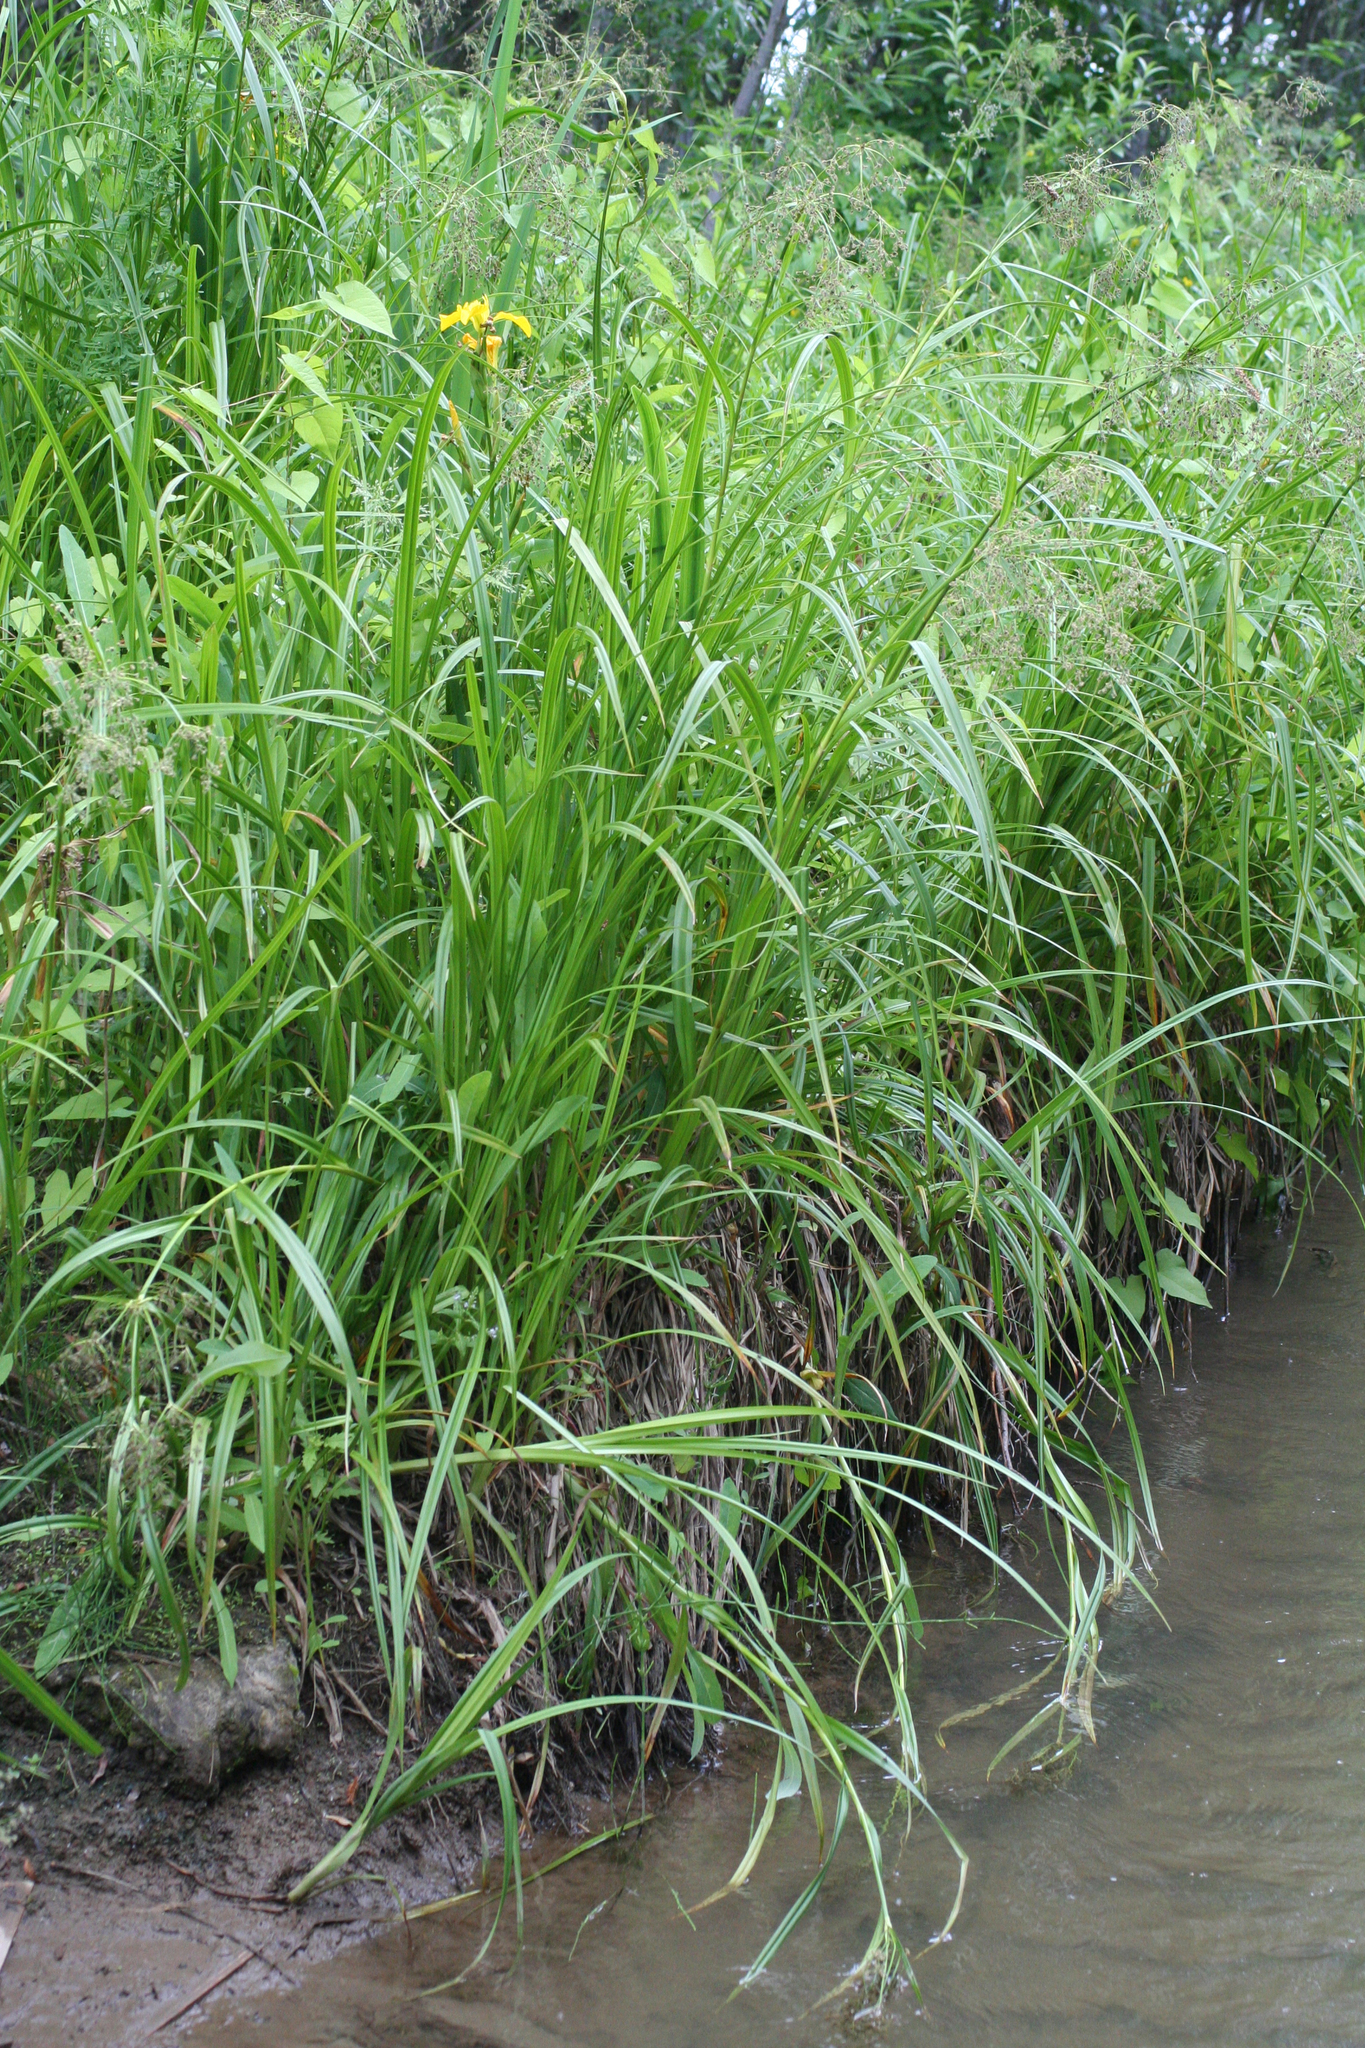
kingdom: Plantae
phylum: Tracheophyta
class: Liliopsida
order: Asparagales
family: Iridaceae
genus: Iris
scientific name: Iris pseudacorus
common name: Yellow flag
